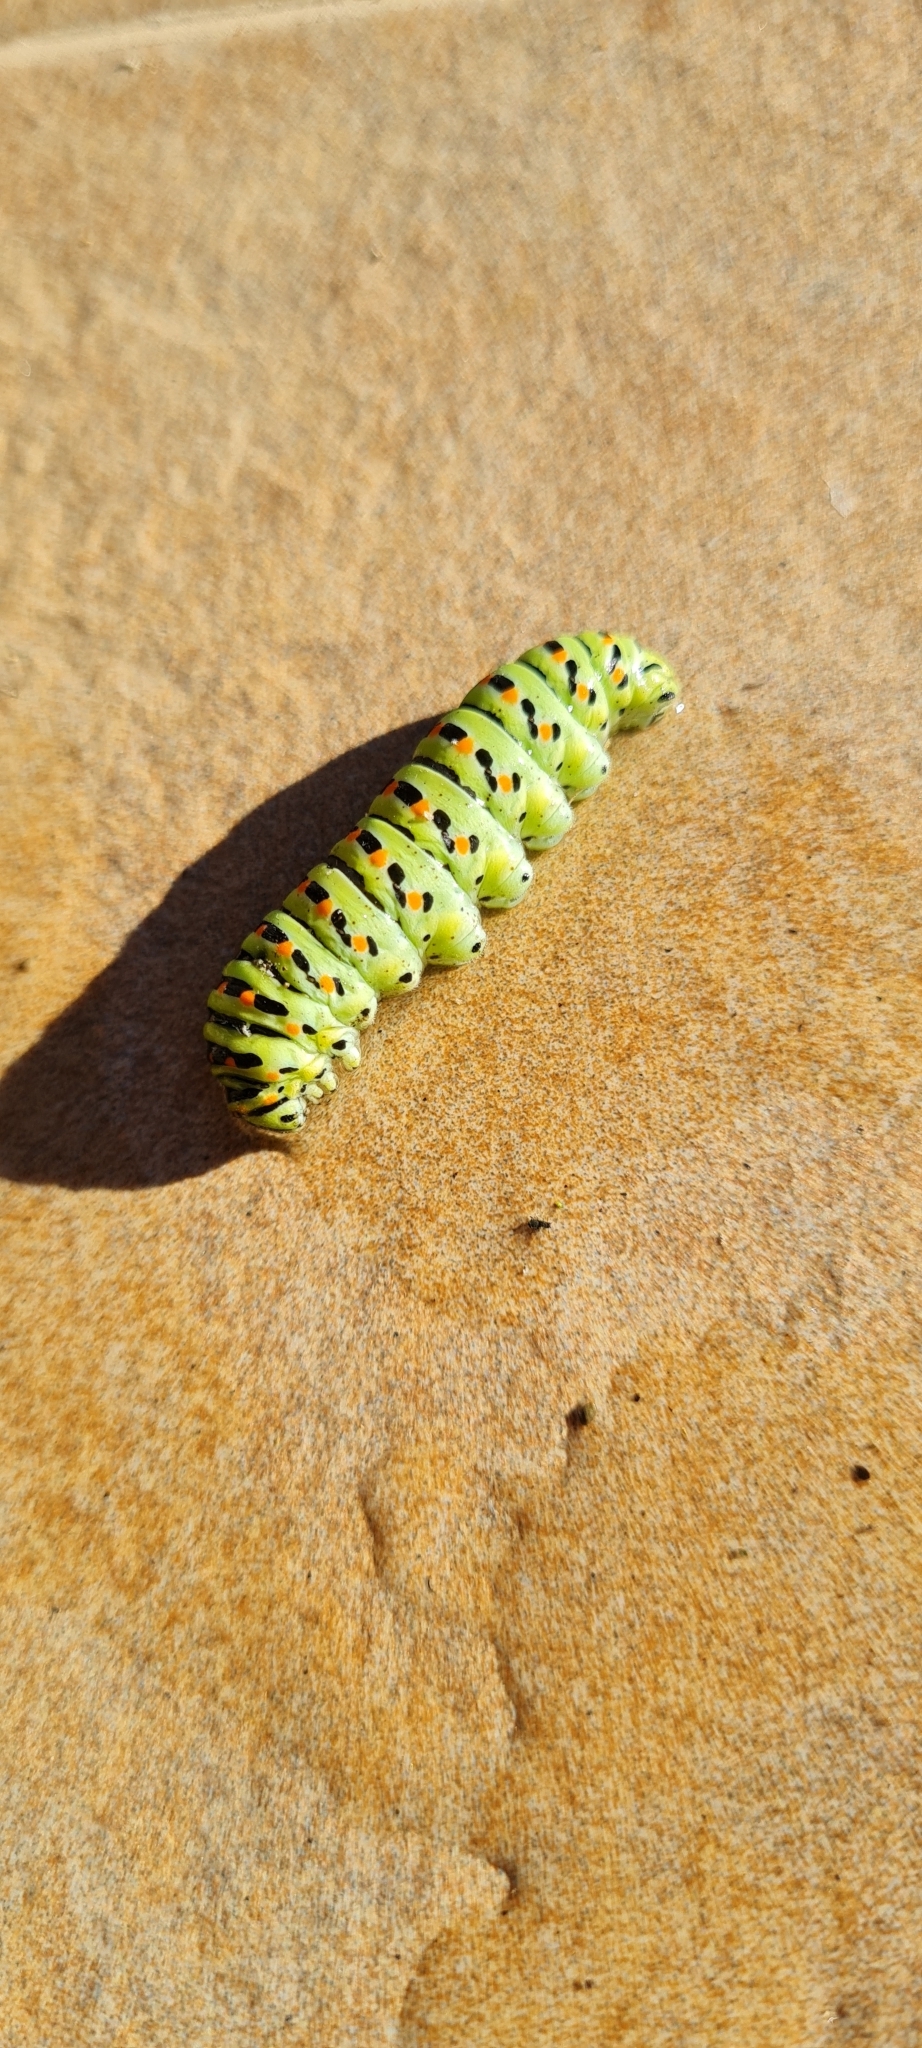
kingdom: Animalia
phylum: Arthropoda
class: Insecta
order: Lepidoptera
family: Papilionidae
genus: Papilio
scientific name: Papilio machaon
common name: Swallowtail
